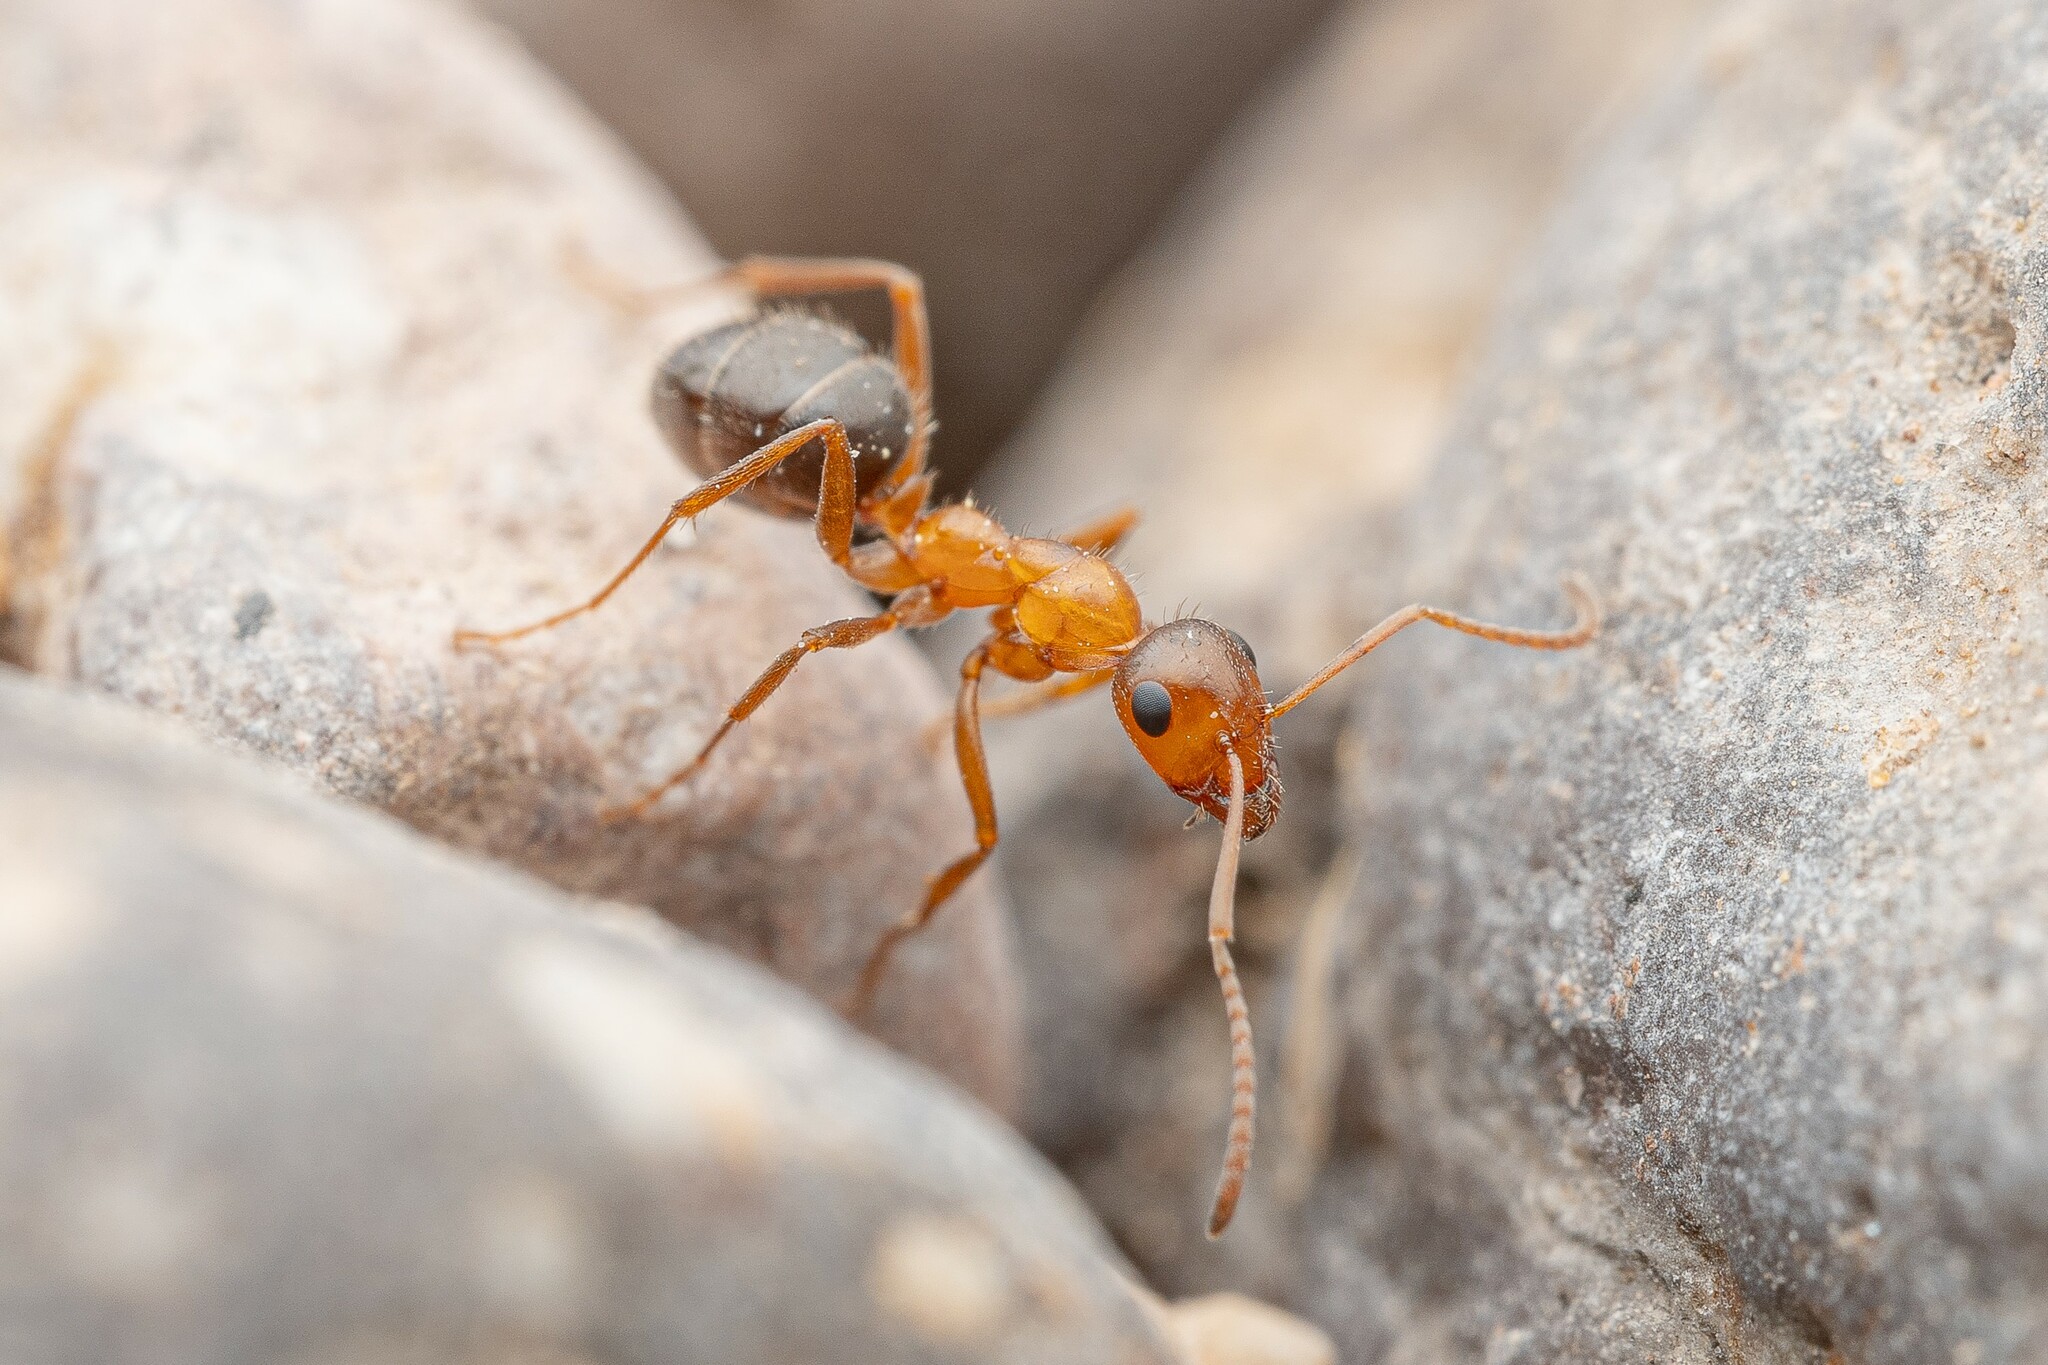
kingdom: Animalia
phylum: Arthropoda
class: Insecta
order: Hymenoptera
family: Formicidae
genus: Formica
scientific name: Formica perpilosa
